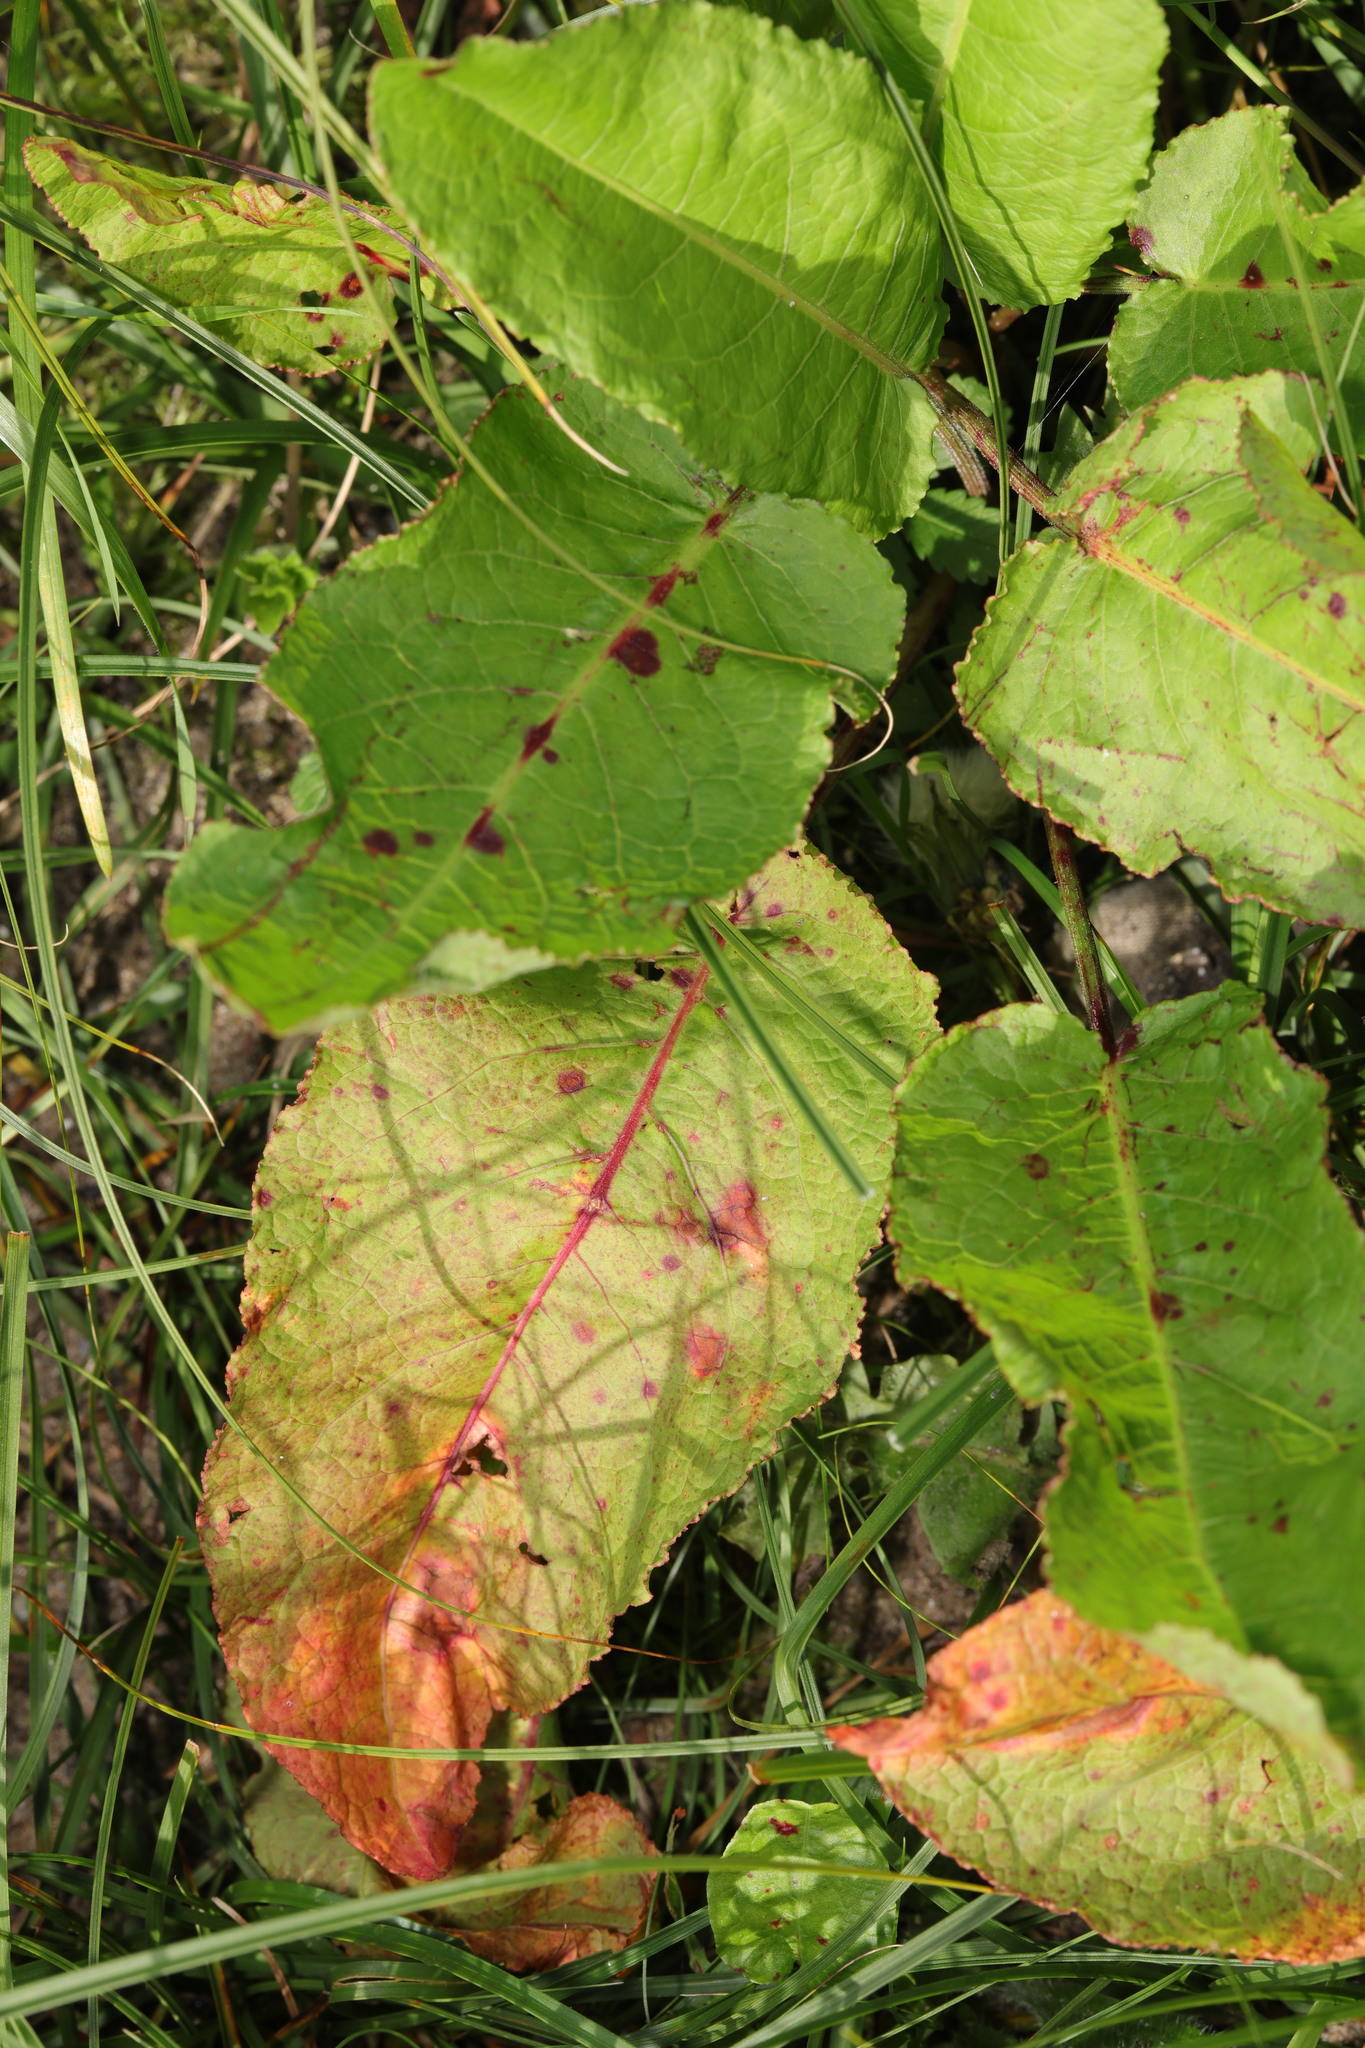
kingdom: Plantae
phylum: Tracheophyta
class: Magnoliopsida
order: Caryophyllales
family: Polygonaceae
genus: Rumex
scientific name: Rumex obtusifolius
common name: Bitter dock
